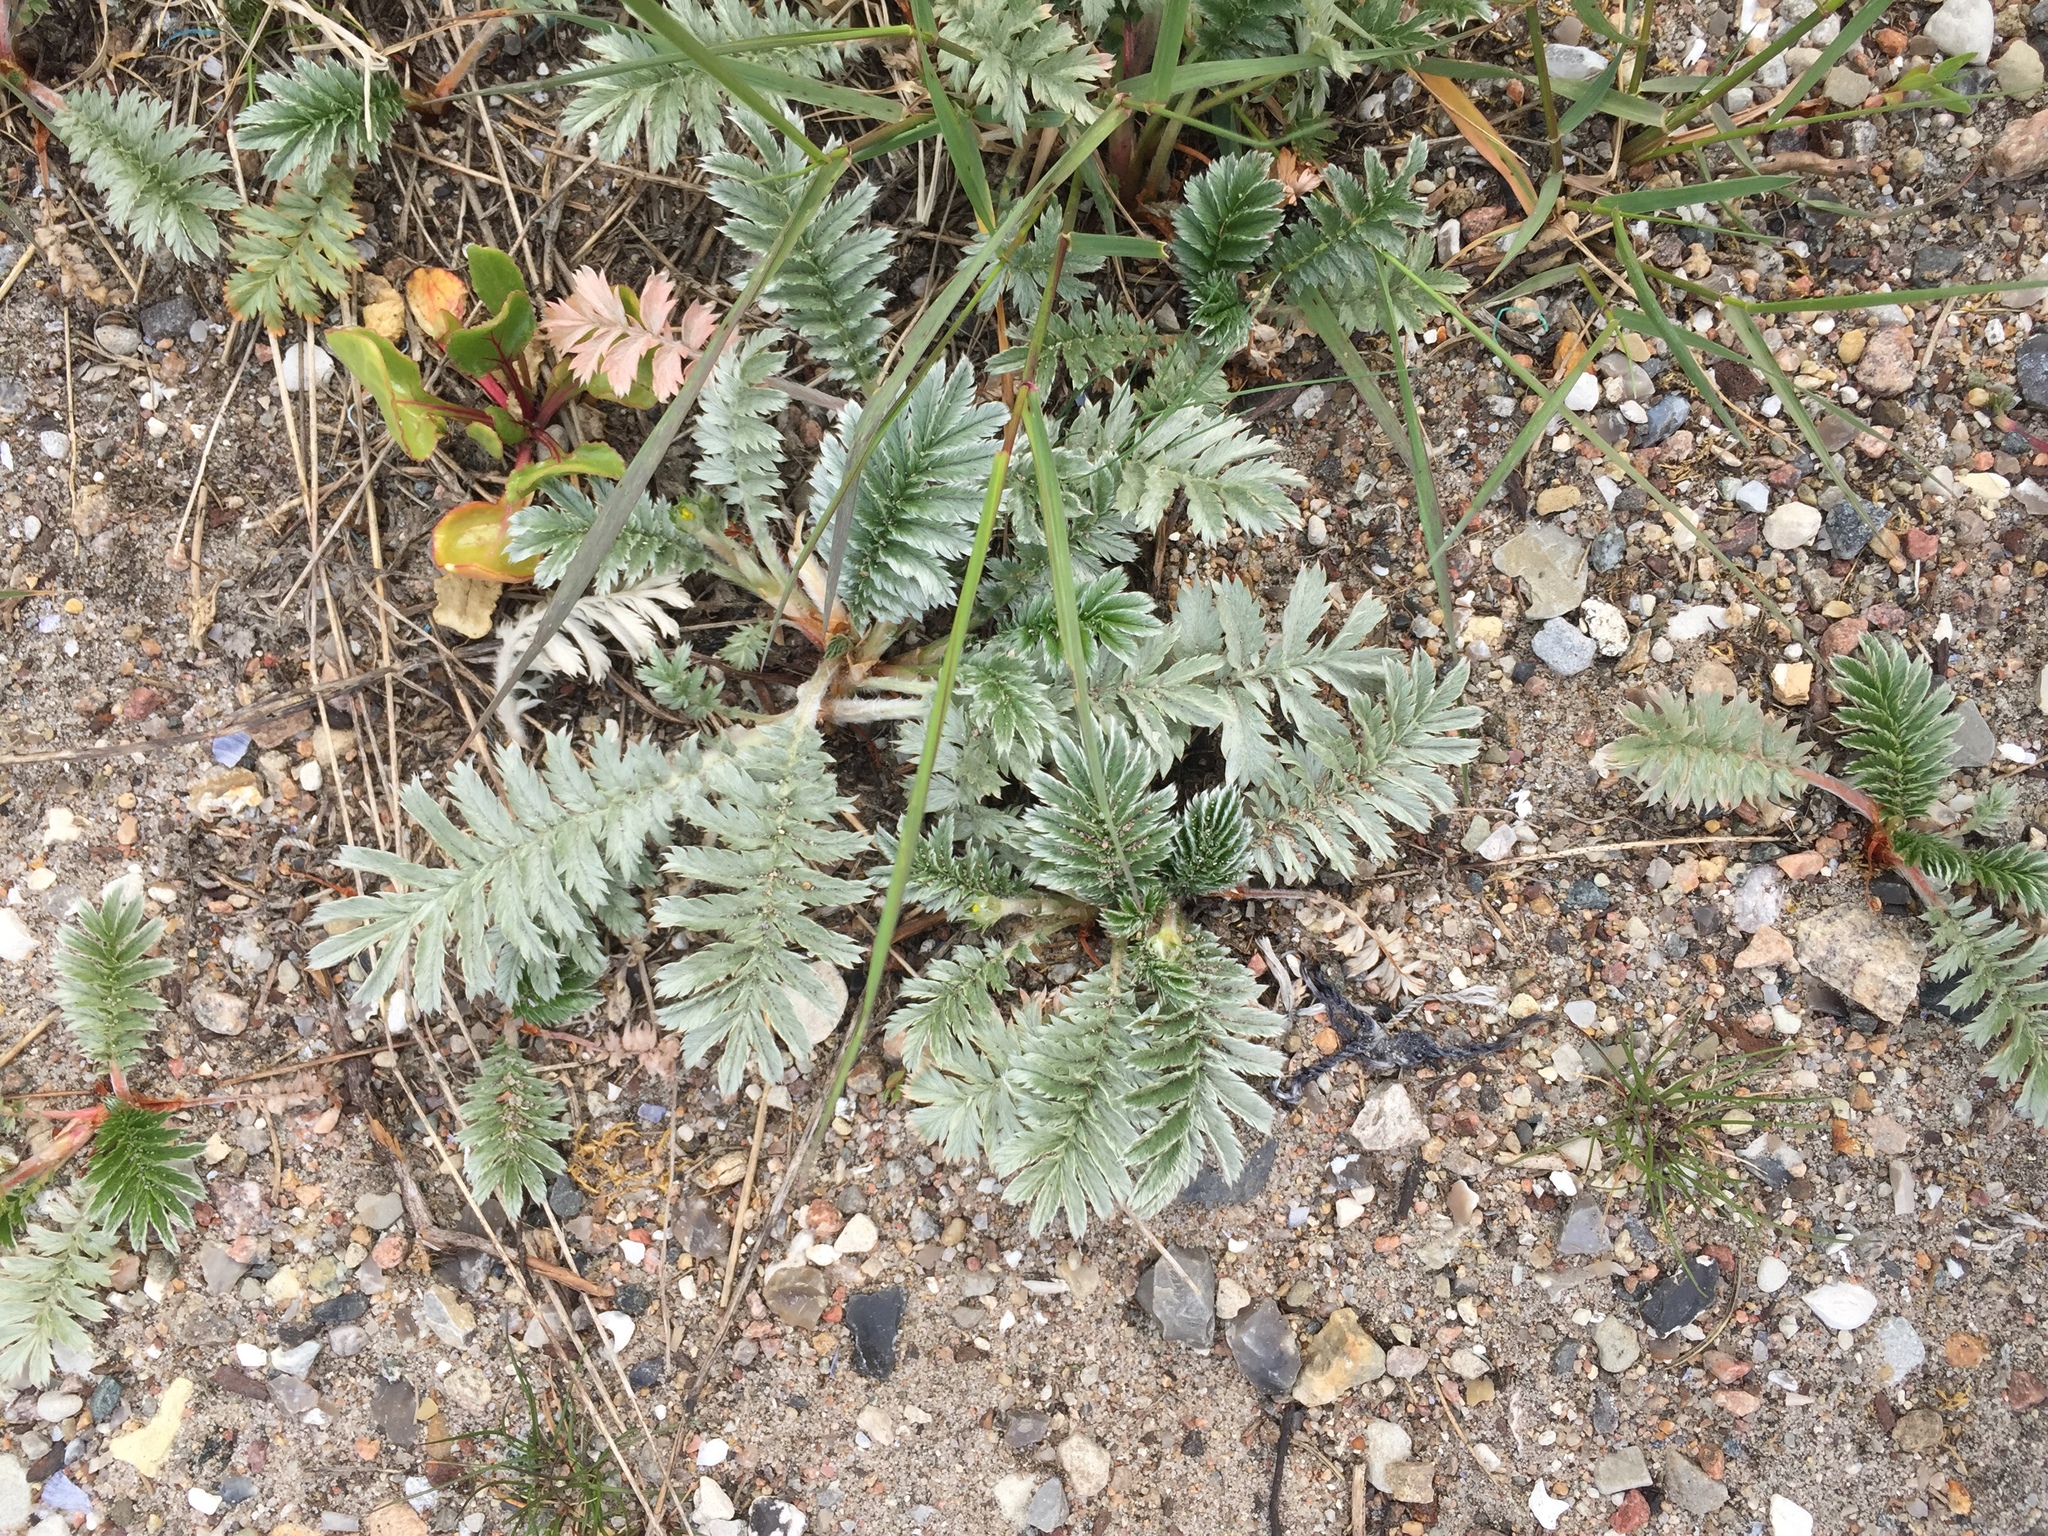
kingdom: Plantae
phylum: Tracheophyta
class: Magnoliopsida
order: Rosales
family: Rosaceae
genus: Argentina
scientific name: Argentina anserina
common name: Common silverweed
